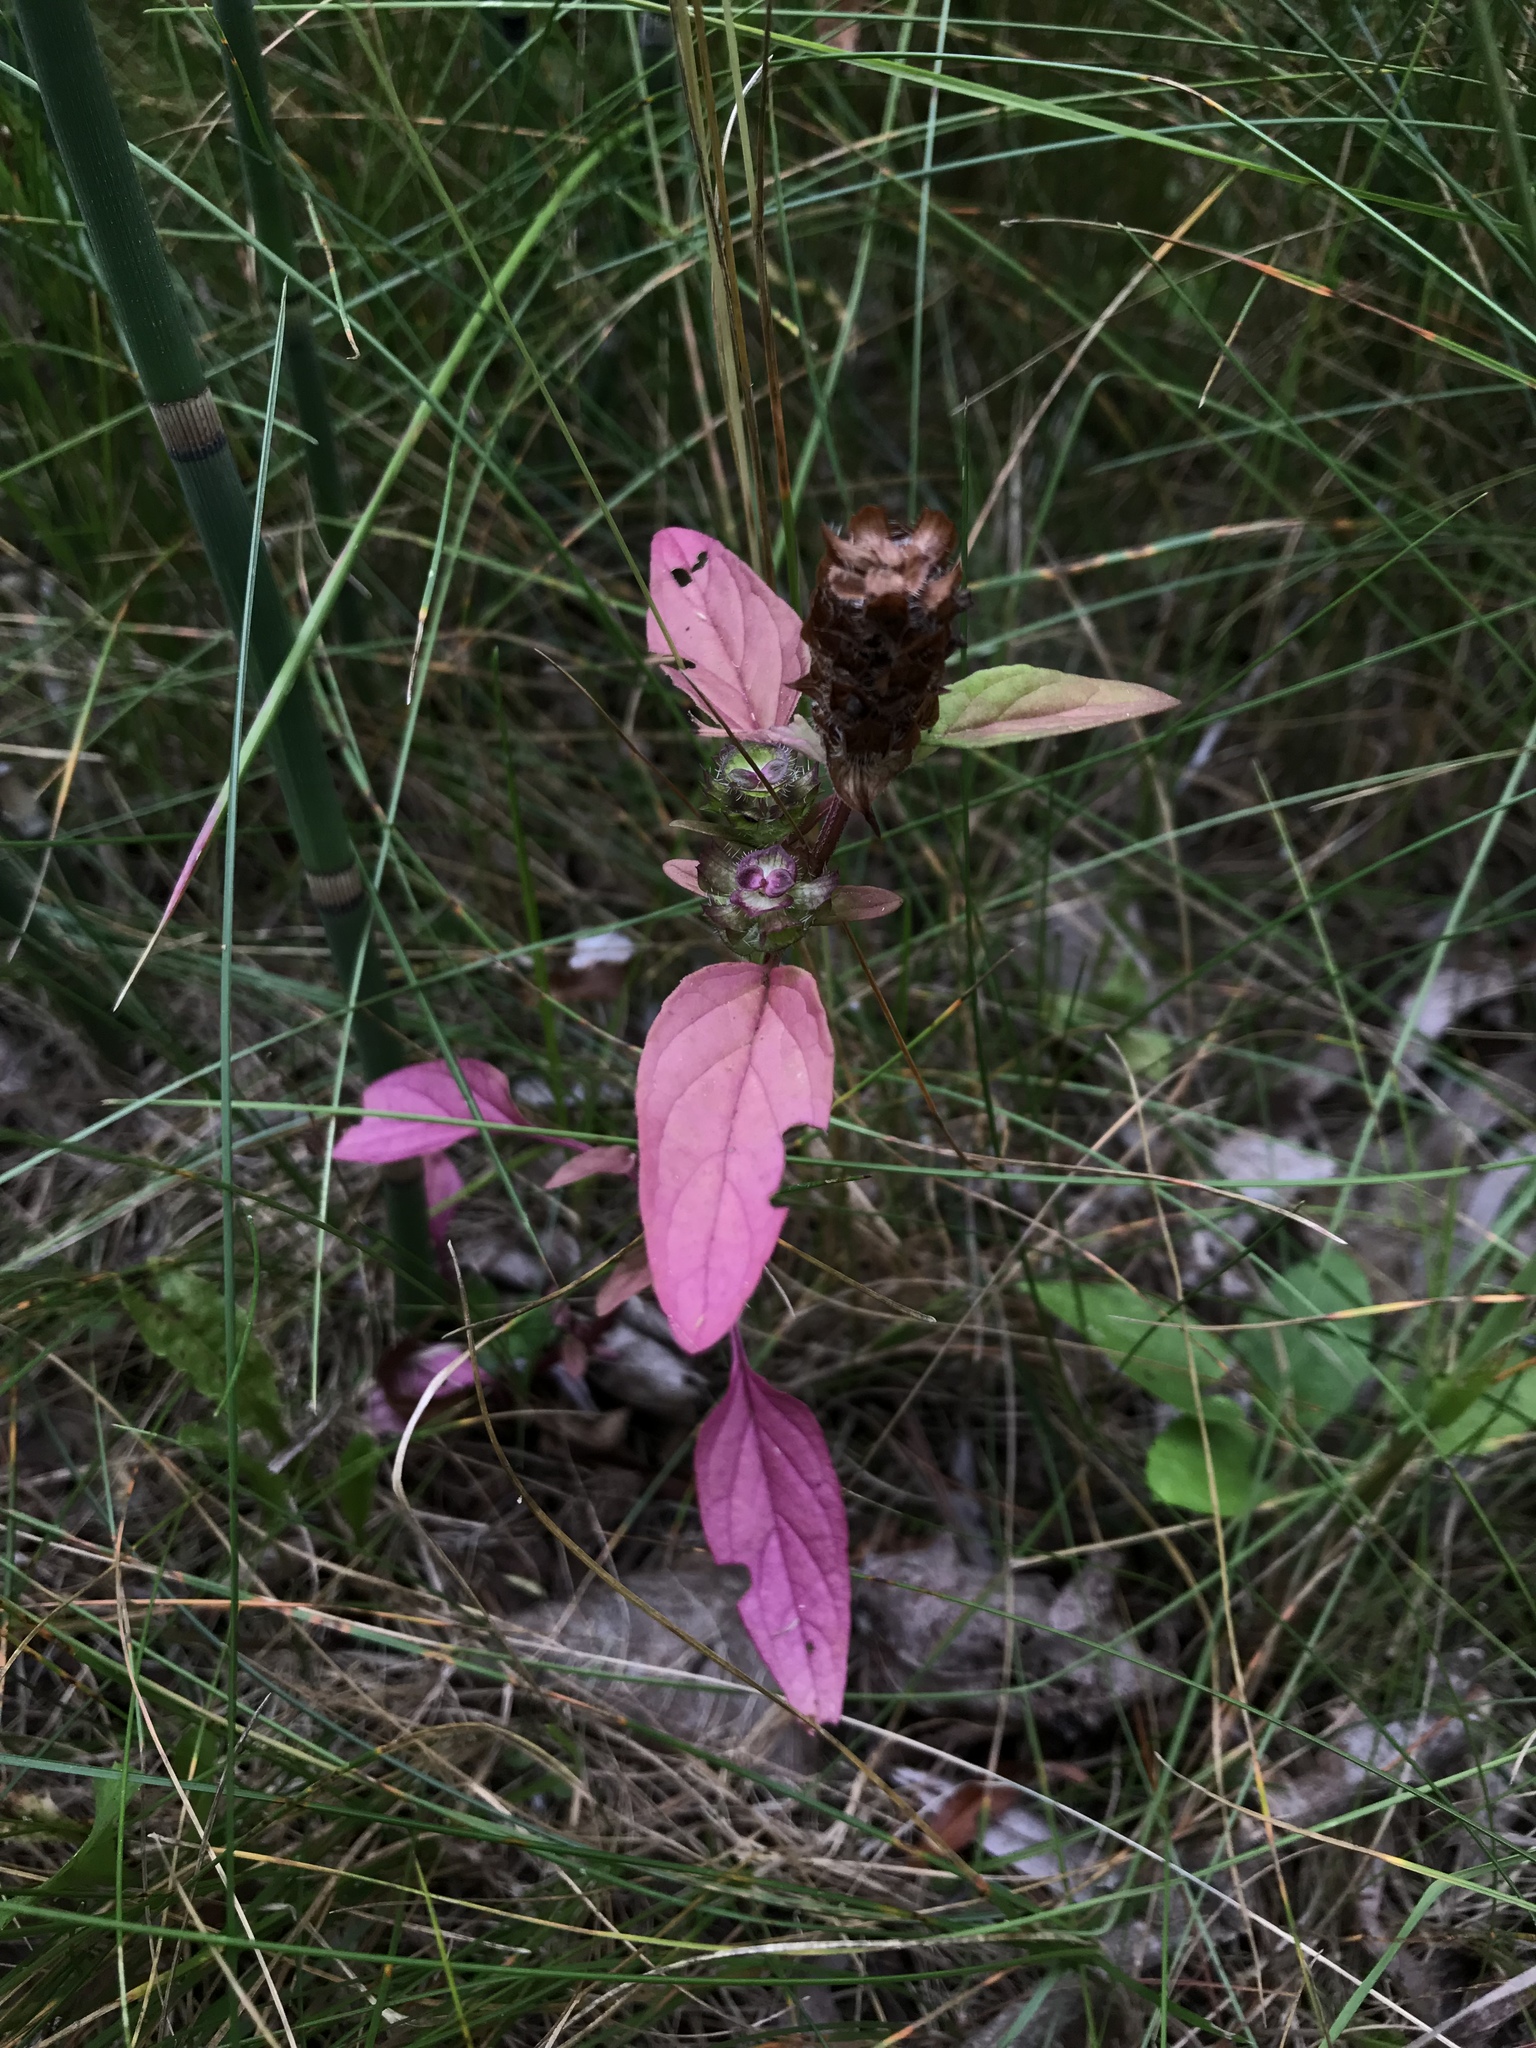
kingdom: Plantae
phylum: Tracheophyta
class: Magnoliopsida
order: Lamiales
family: Lamiaceae
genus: Prunella
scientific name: Prunella vulgaris
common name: Heal-all
